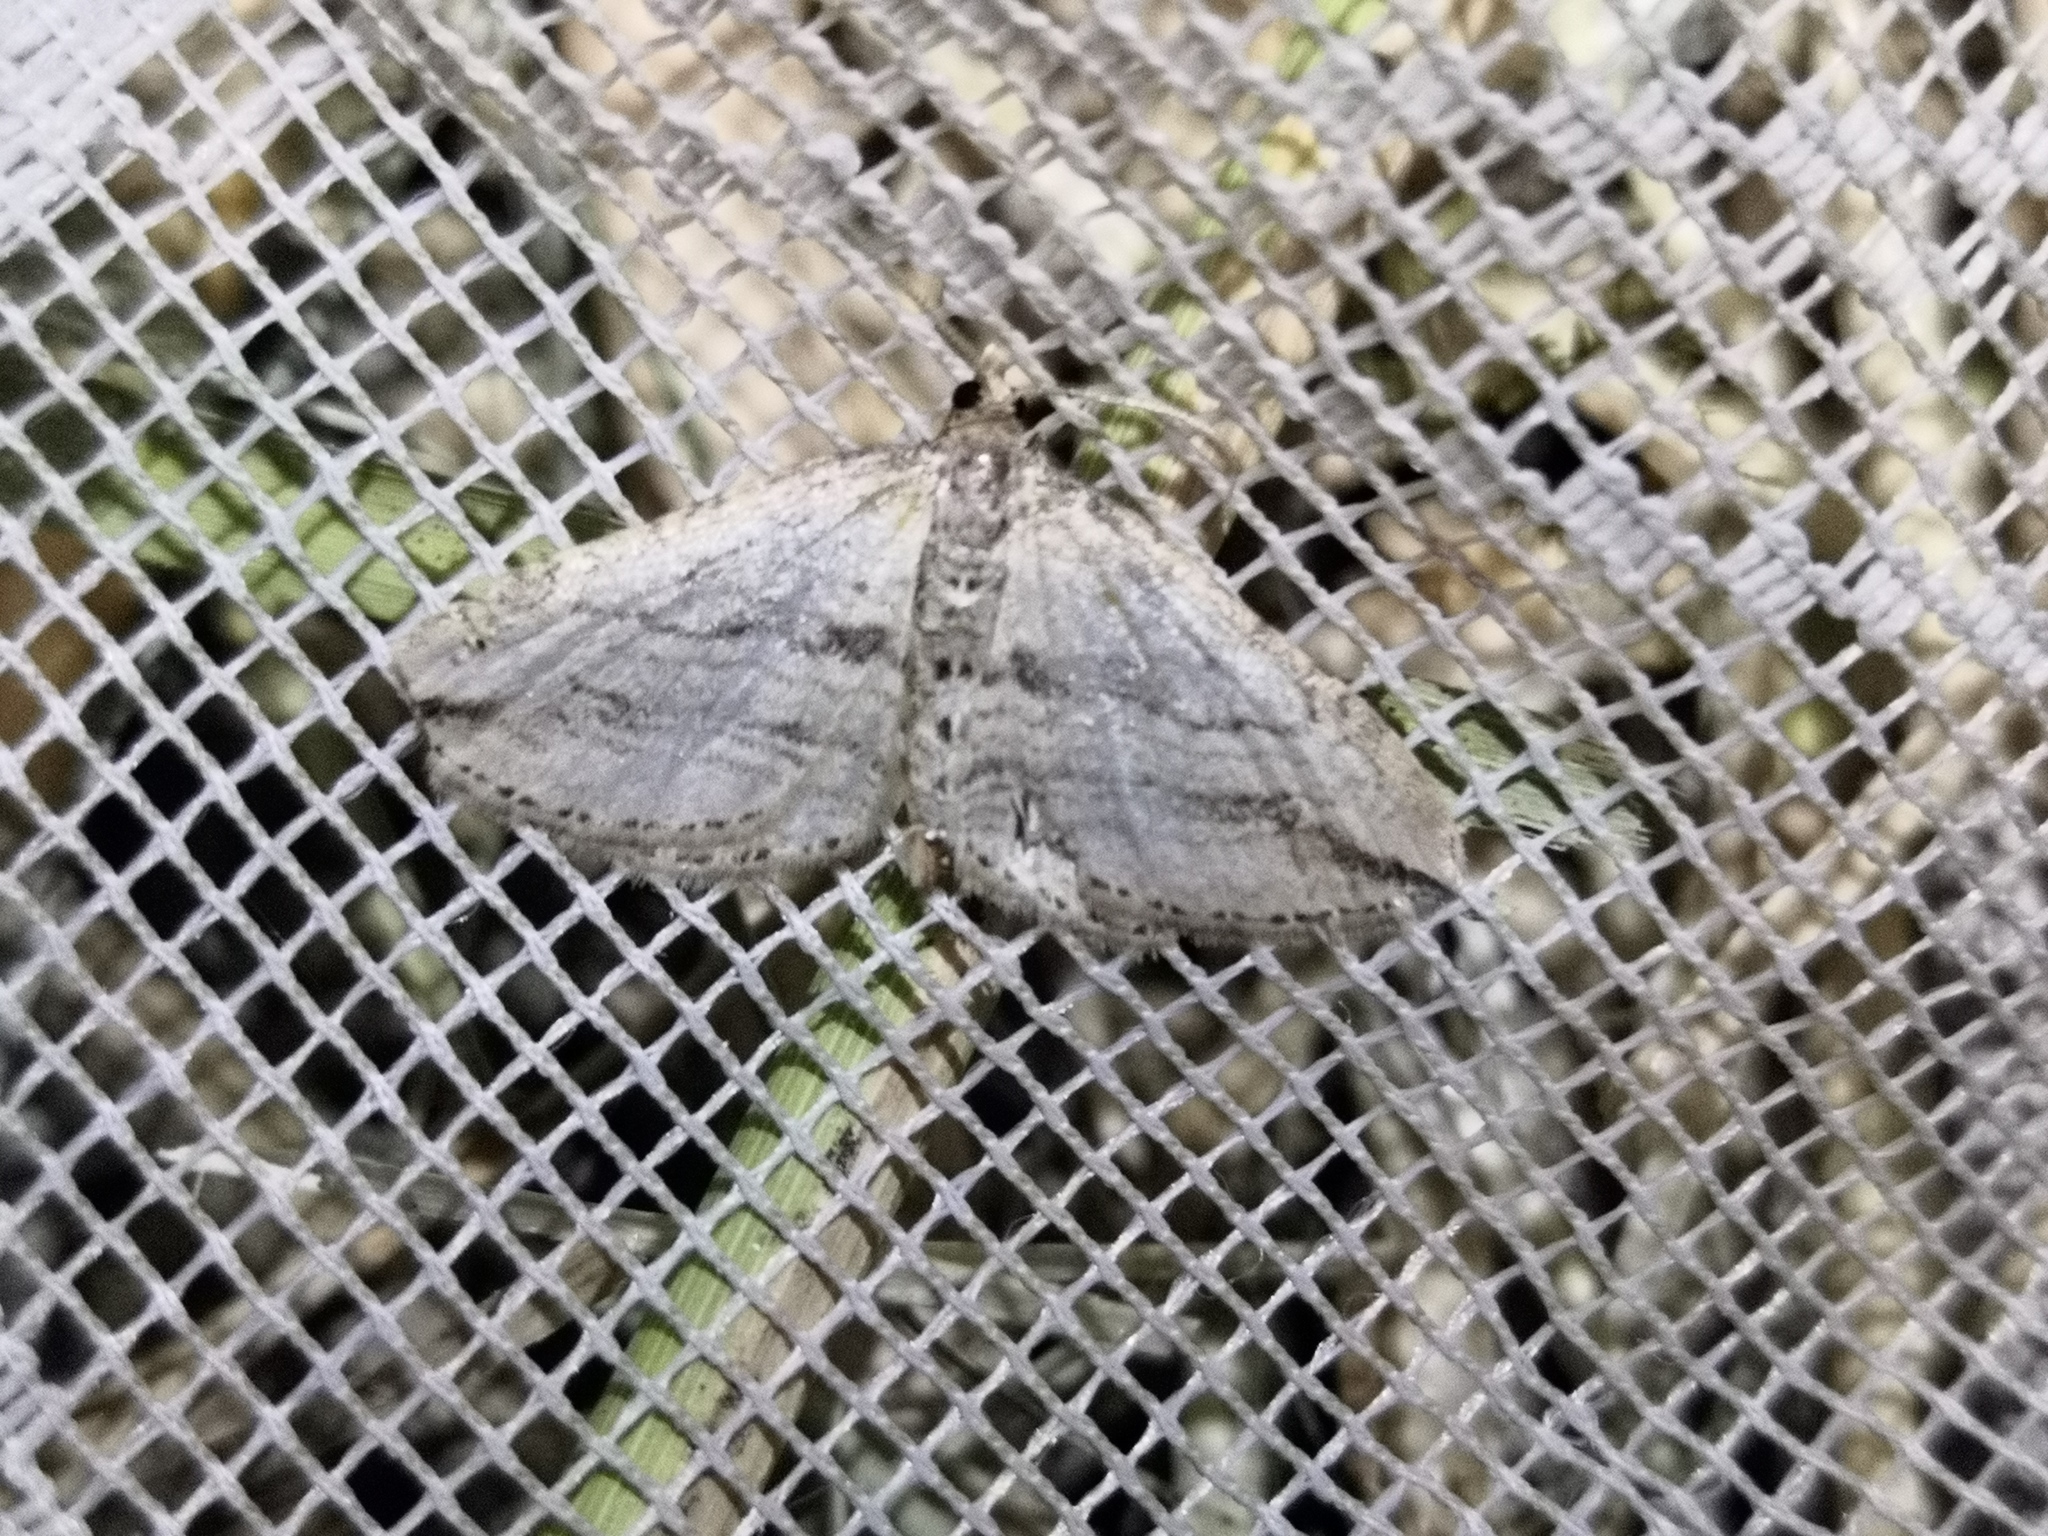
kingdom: Animalia
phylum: Arthropoda
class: Insecta
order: Lepidoptera
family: Geometridae
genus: Orthonama
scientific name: Orthonama vittata
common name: Oblique carpet
